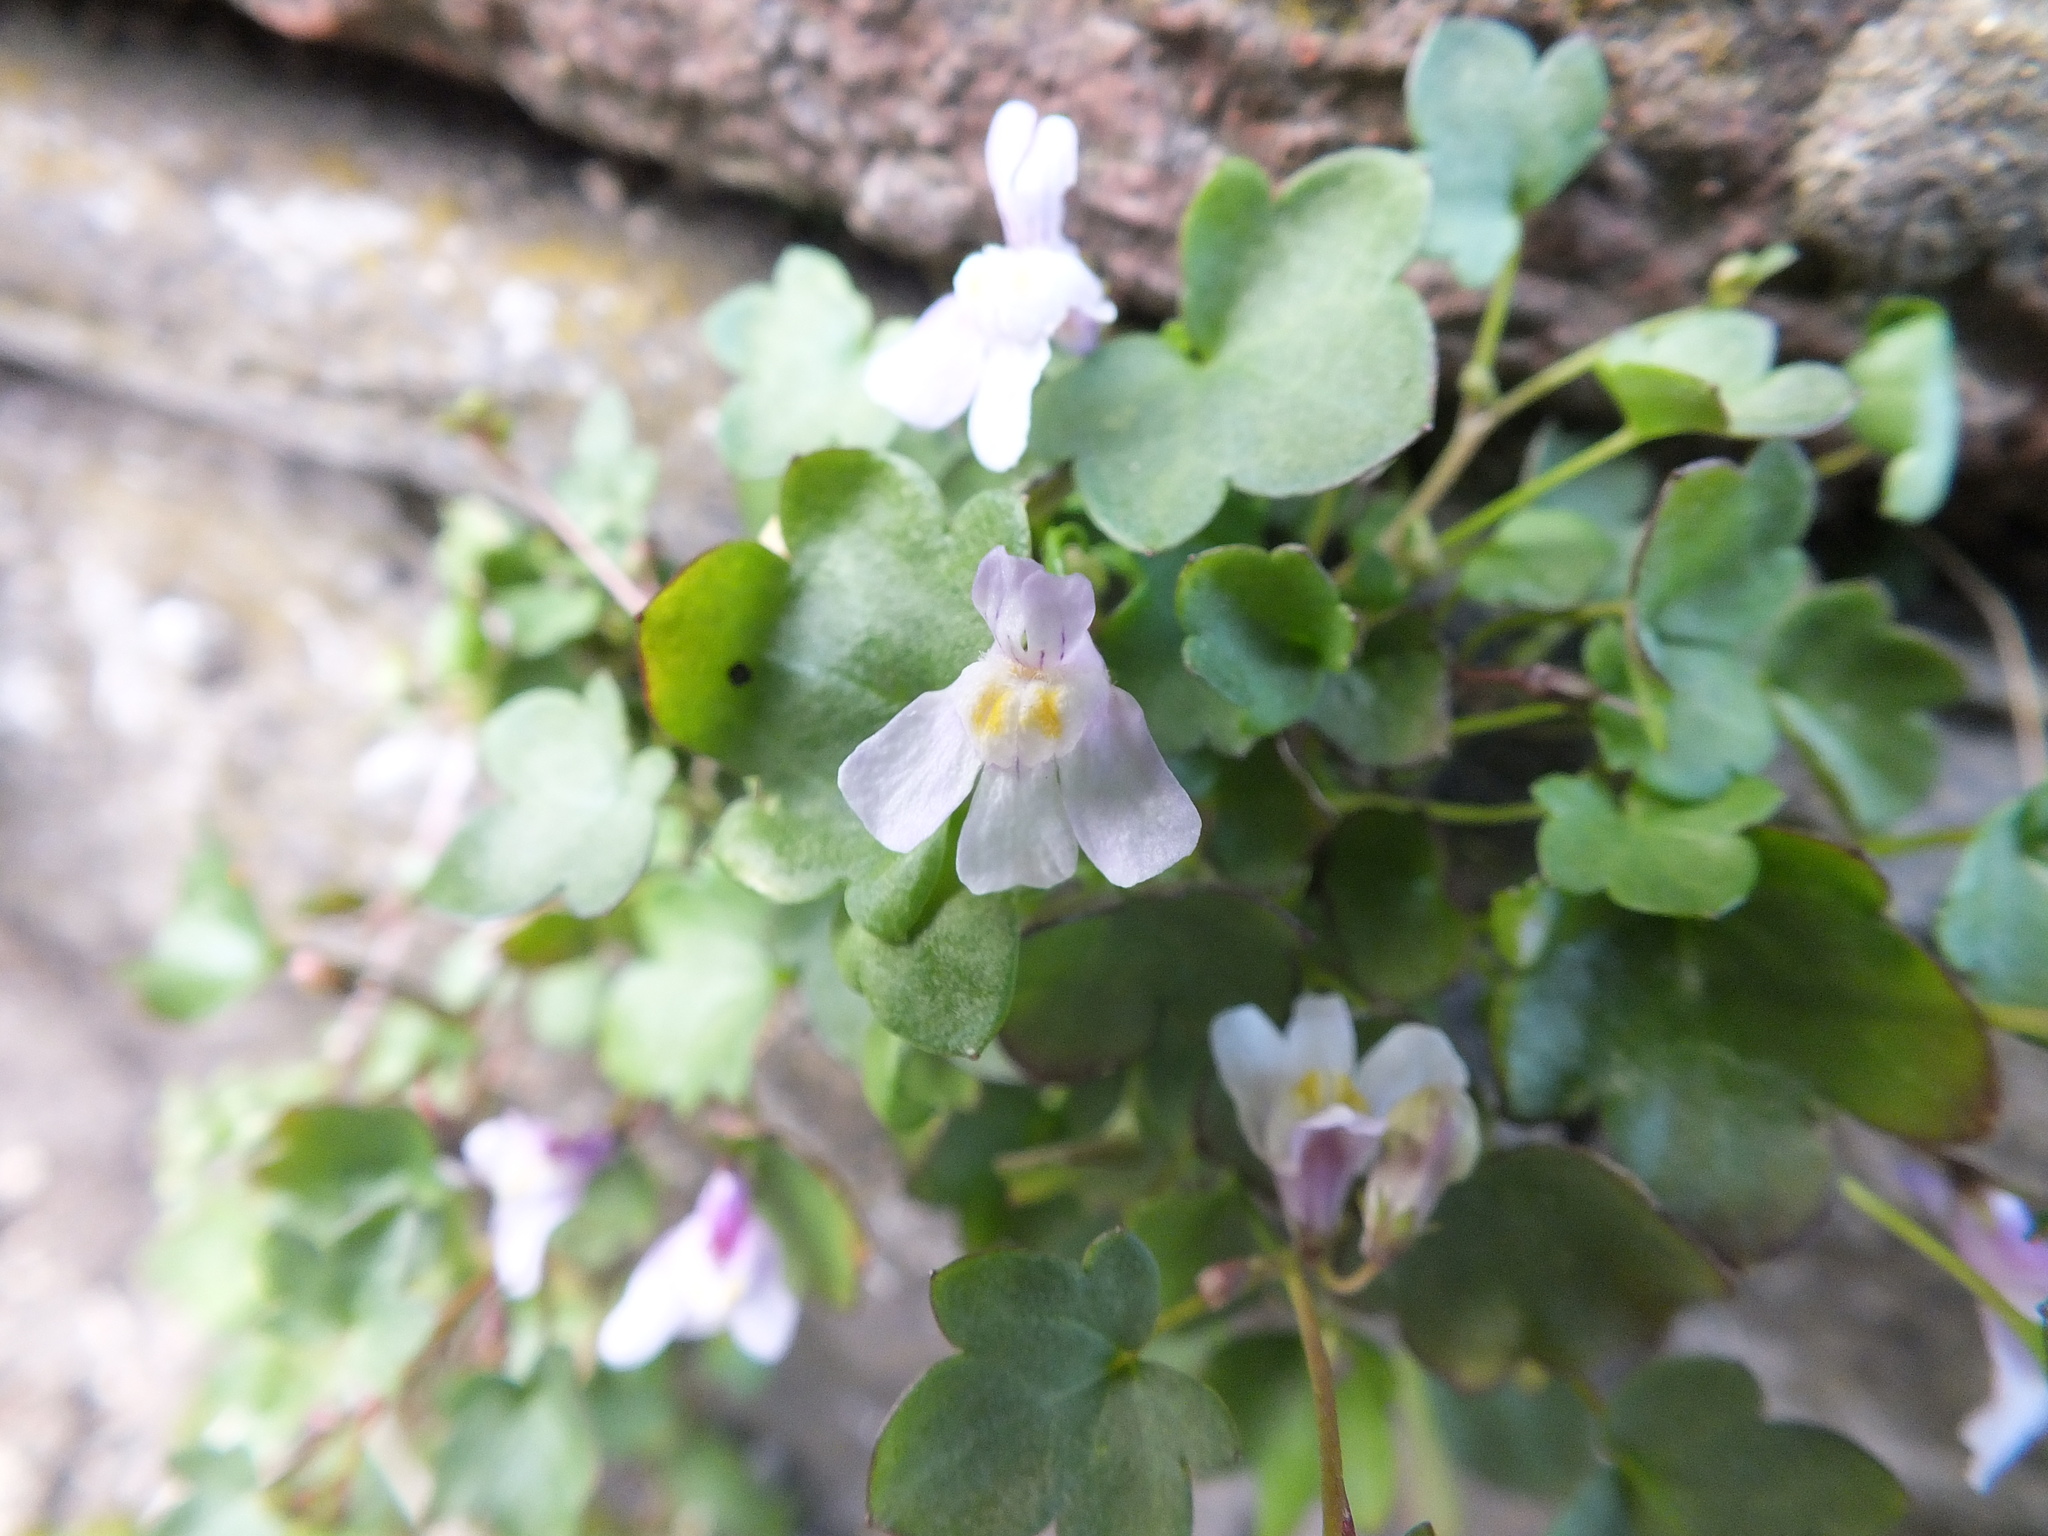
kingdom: Plantae
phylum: Tracheophyta
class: Magnoliopsida
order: Lamiales
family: Plantaginaceae
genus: Cymbalaria
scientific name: Cymbalaria muralis
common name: Ivy-leaved toadflax
